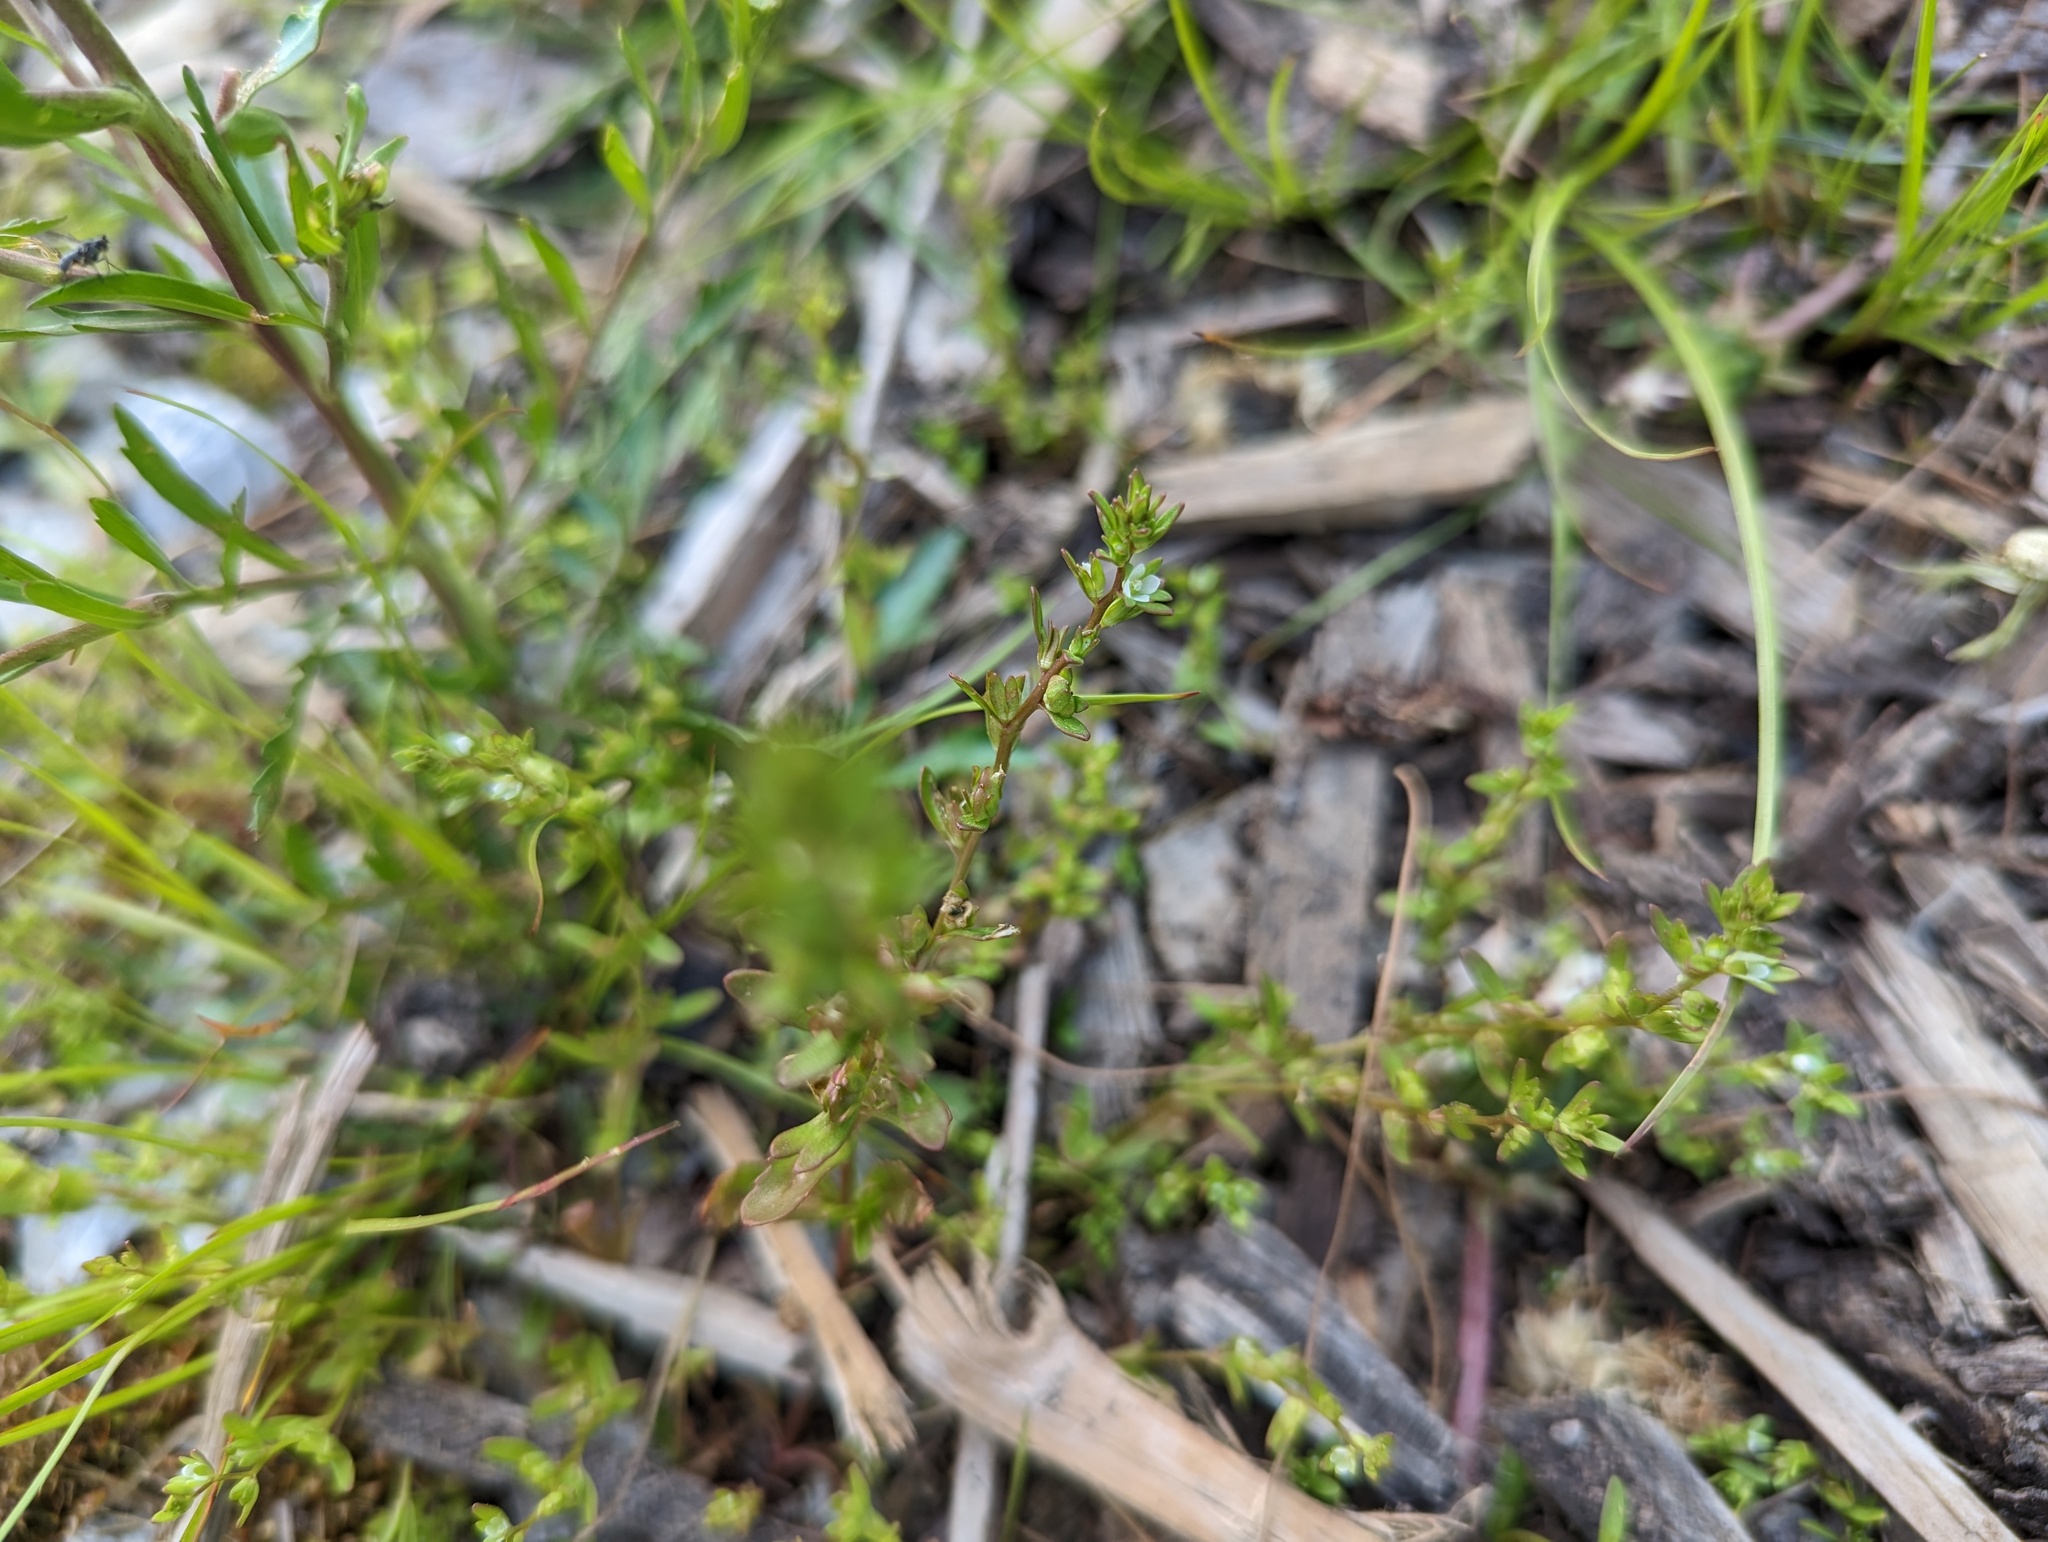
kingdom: Plantae
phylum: Tracheophyta
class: Magnoliopsida
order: Lamiales
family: Plantaginaceae
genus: Veronica
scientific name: Veronica peregrina
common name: Neckweed
